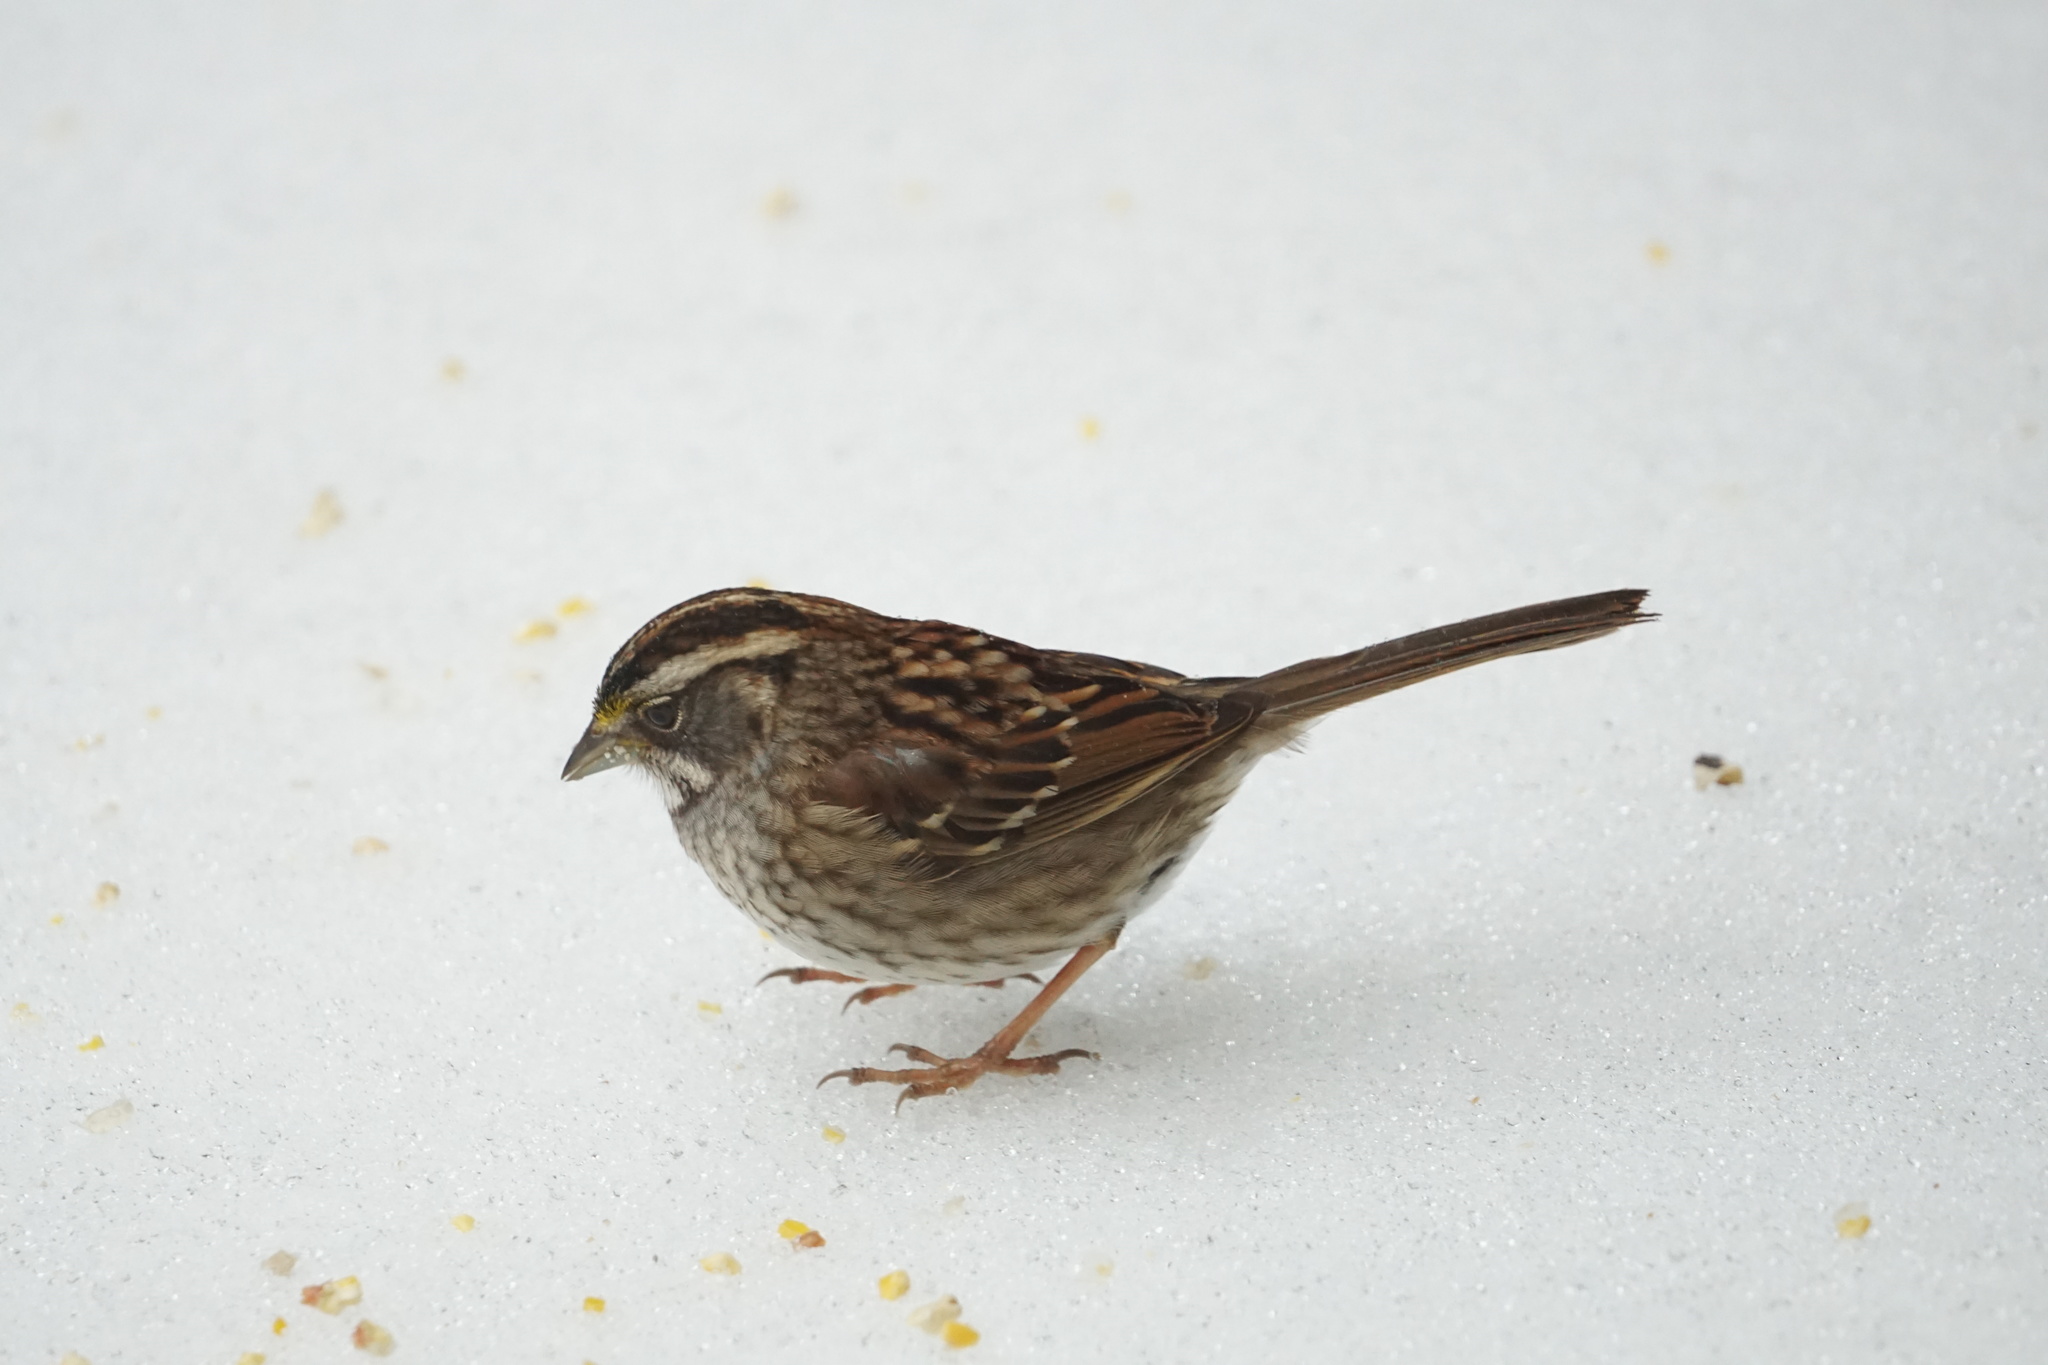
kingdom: Animalia
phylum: Chordata
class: Aves
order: Passeriformes
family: Passerellidae
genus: Zonotrichia
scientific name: Zonotrichia albicollis
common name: White-throated sparrow
